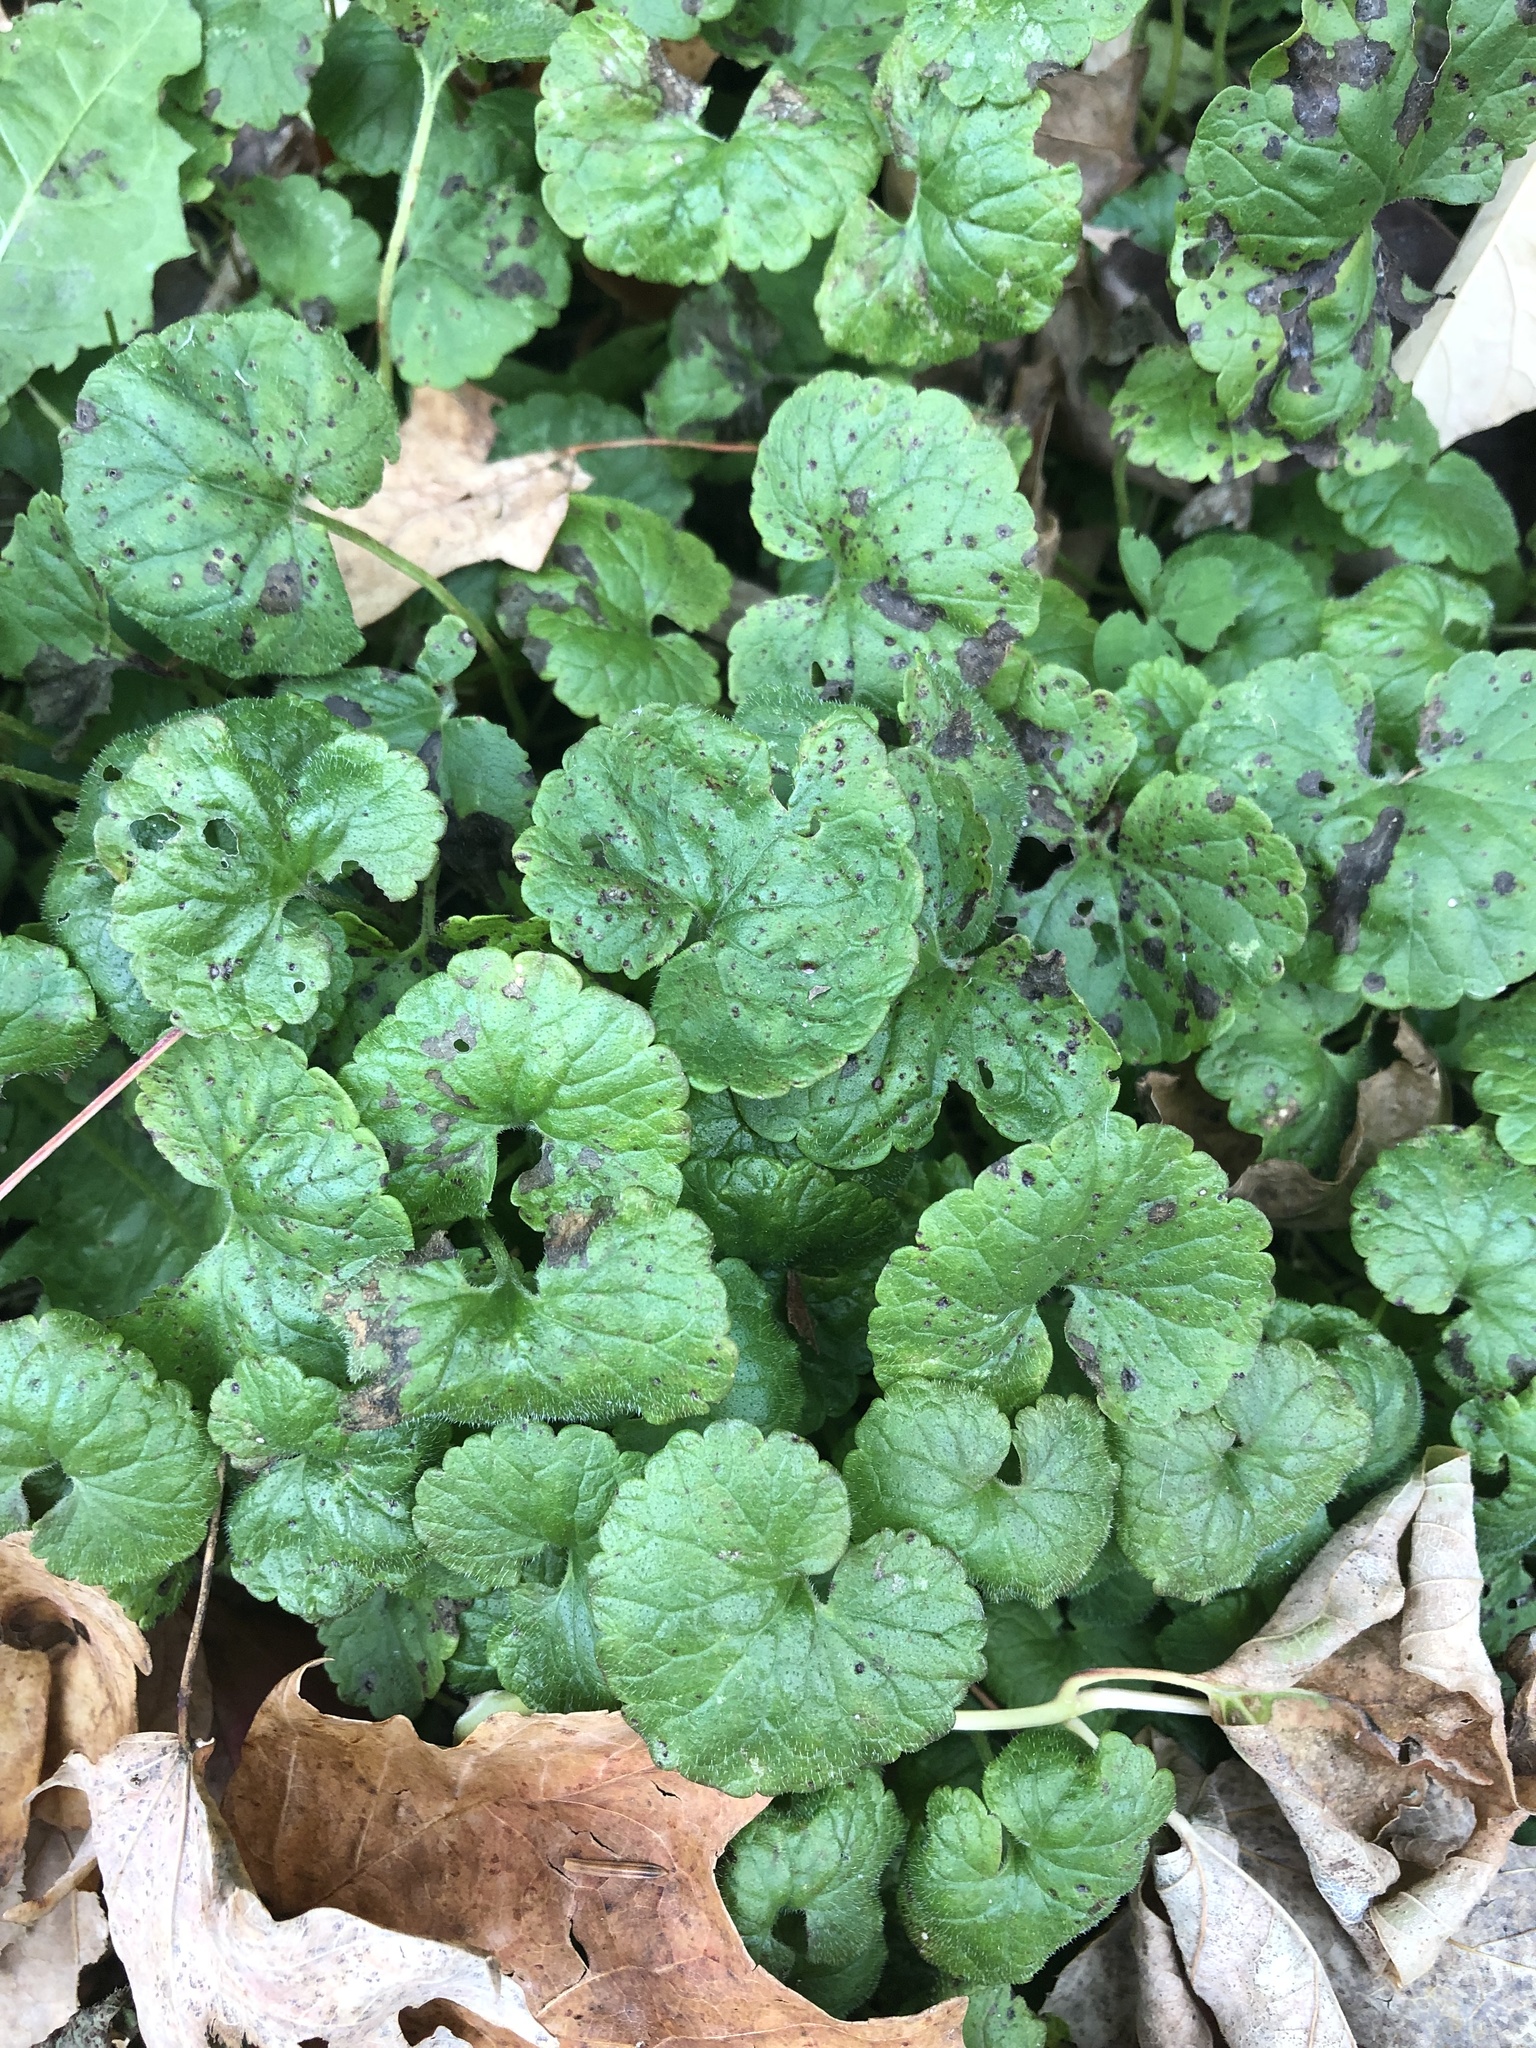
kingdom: Plantae
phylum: Tracheophyta
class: Magnoliopsida
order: Lamiales
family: Lamiaceae
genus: Glechoma
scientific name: Glechoma hederacea
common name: Ground ivy
